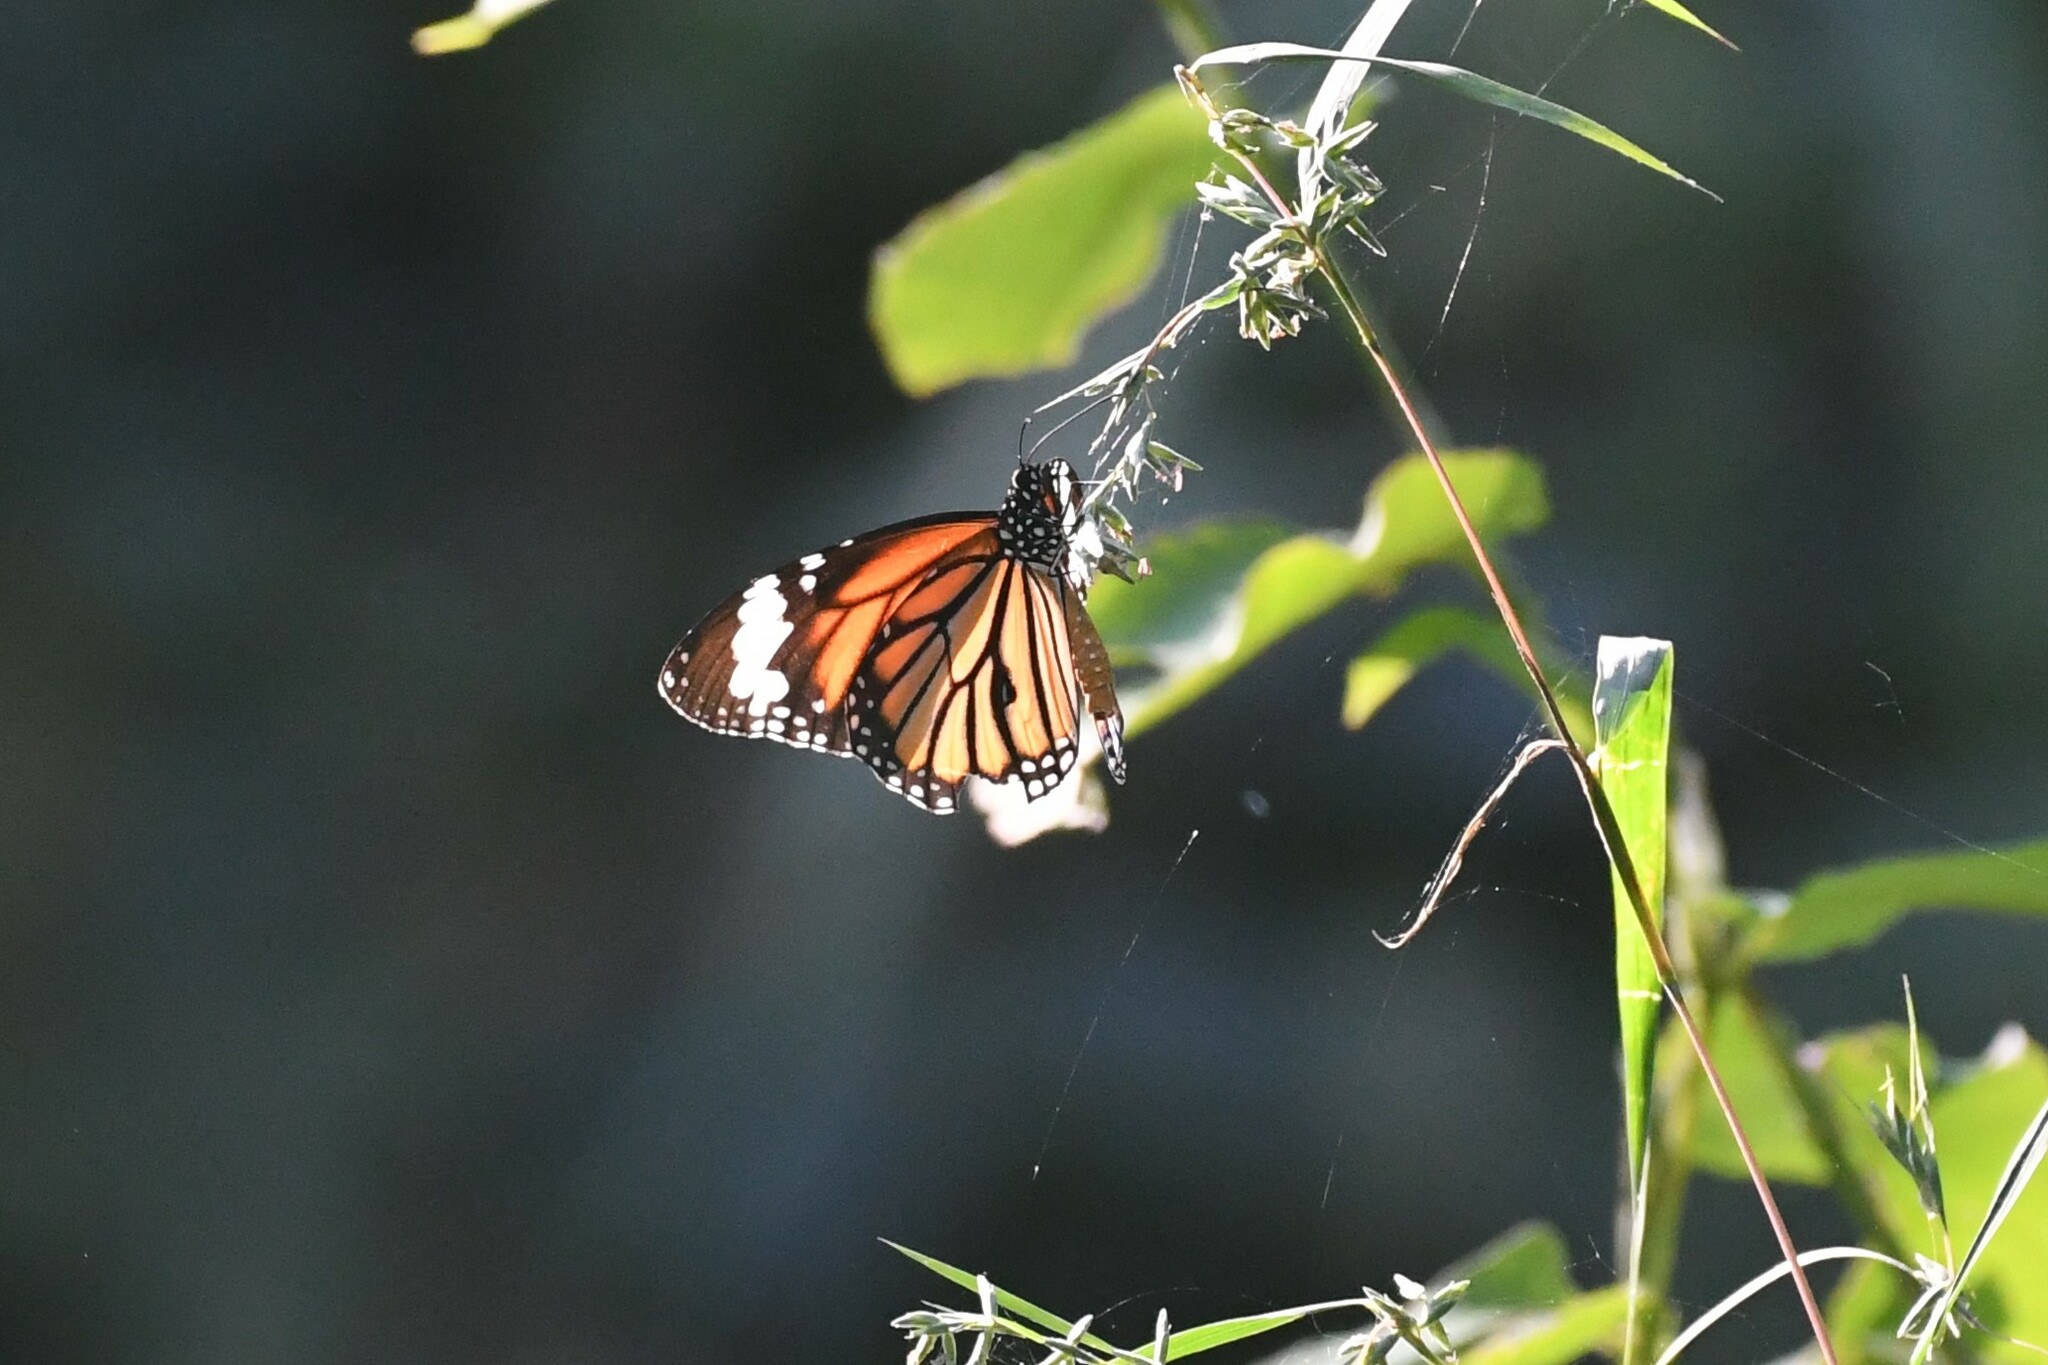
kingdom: Animalia
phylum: Arthropoda
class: Insecta
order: Lepidoptera
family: Nymphalidae
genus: Danaus
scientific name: Danaus genutia
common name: Common tiger butterfly
